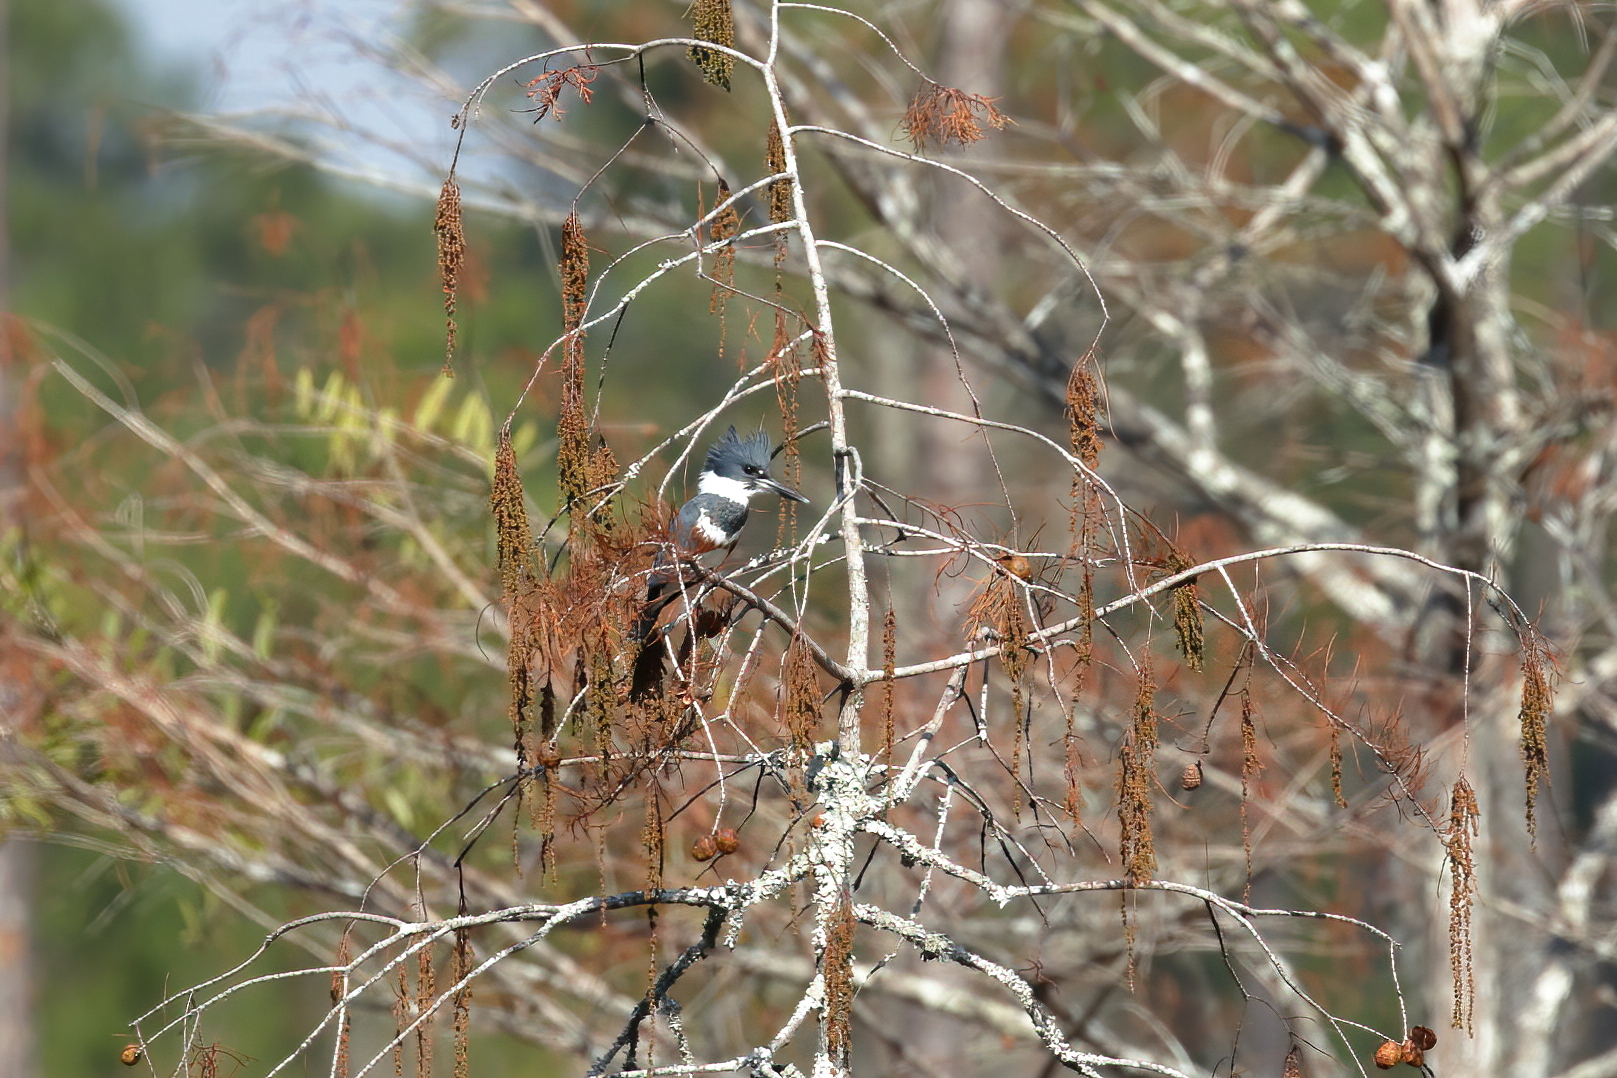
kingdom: Animalia
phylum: Chordata
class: Aves
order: Coraciiformes
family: Alcedinidae
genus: Megaceryle
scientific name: Megaceryle alcyon
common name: Belted kingfisher
